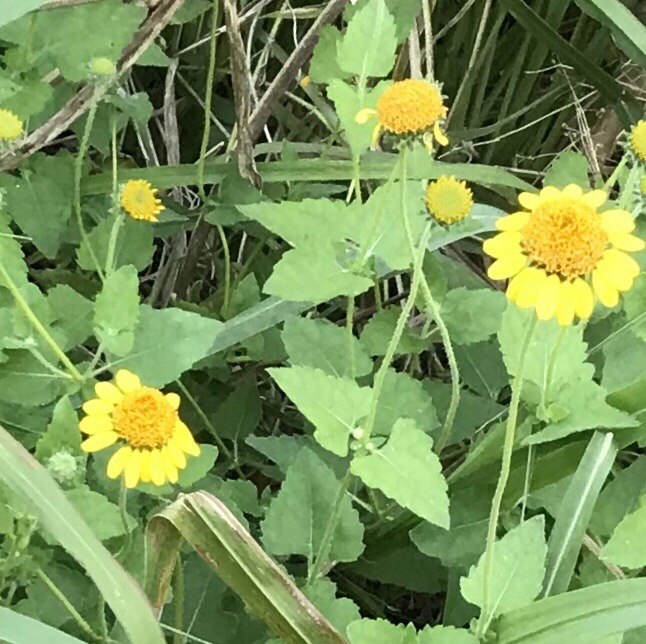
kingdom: Plantae
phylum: Tracheophyta
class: Magnoliopsida
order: Asterales
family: Asteraceae
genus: Simsia
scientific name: Simsia calva
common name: Awnless bush-sunflower
